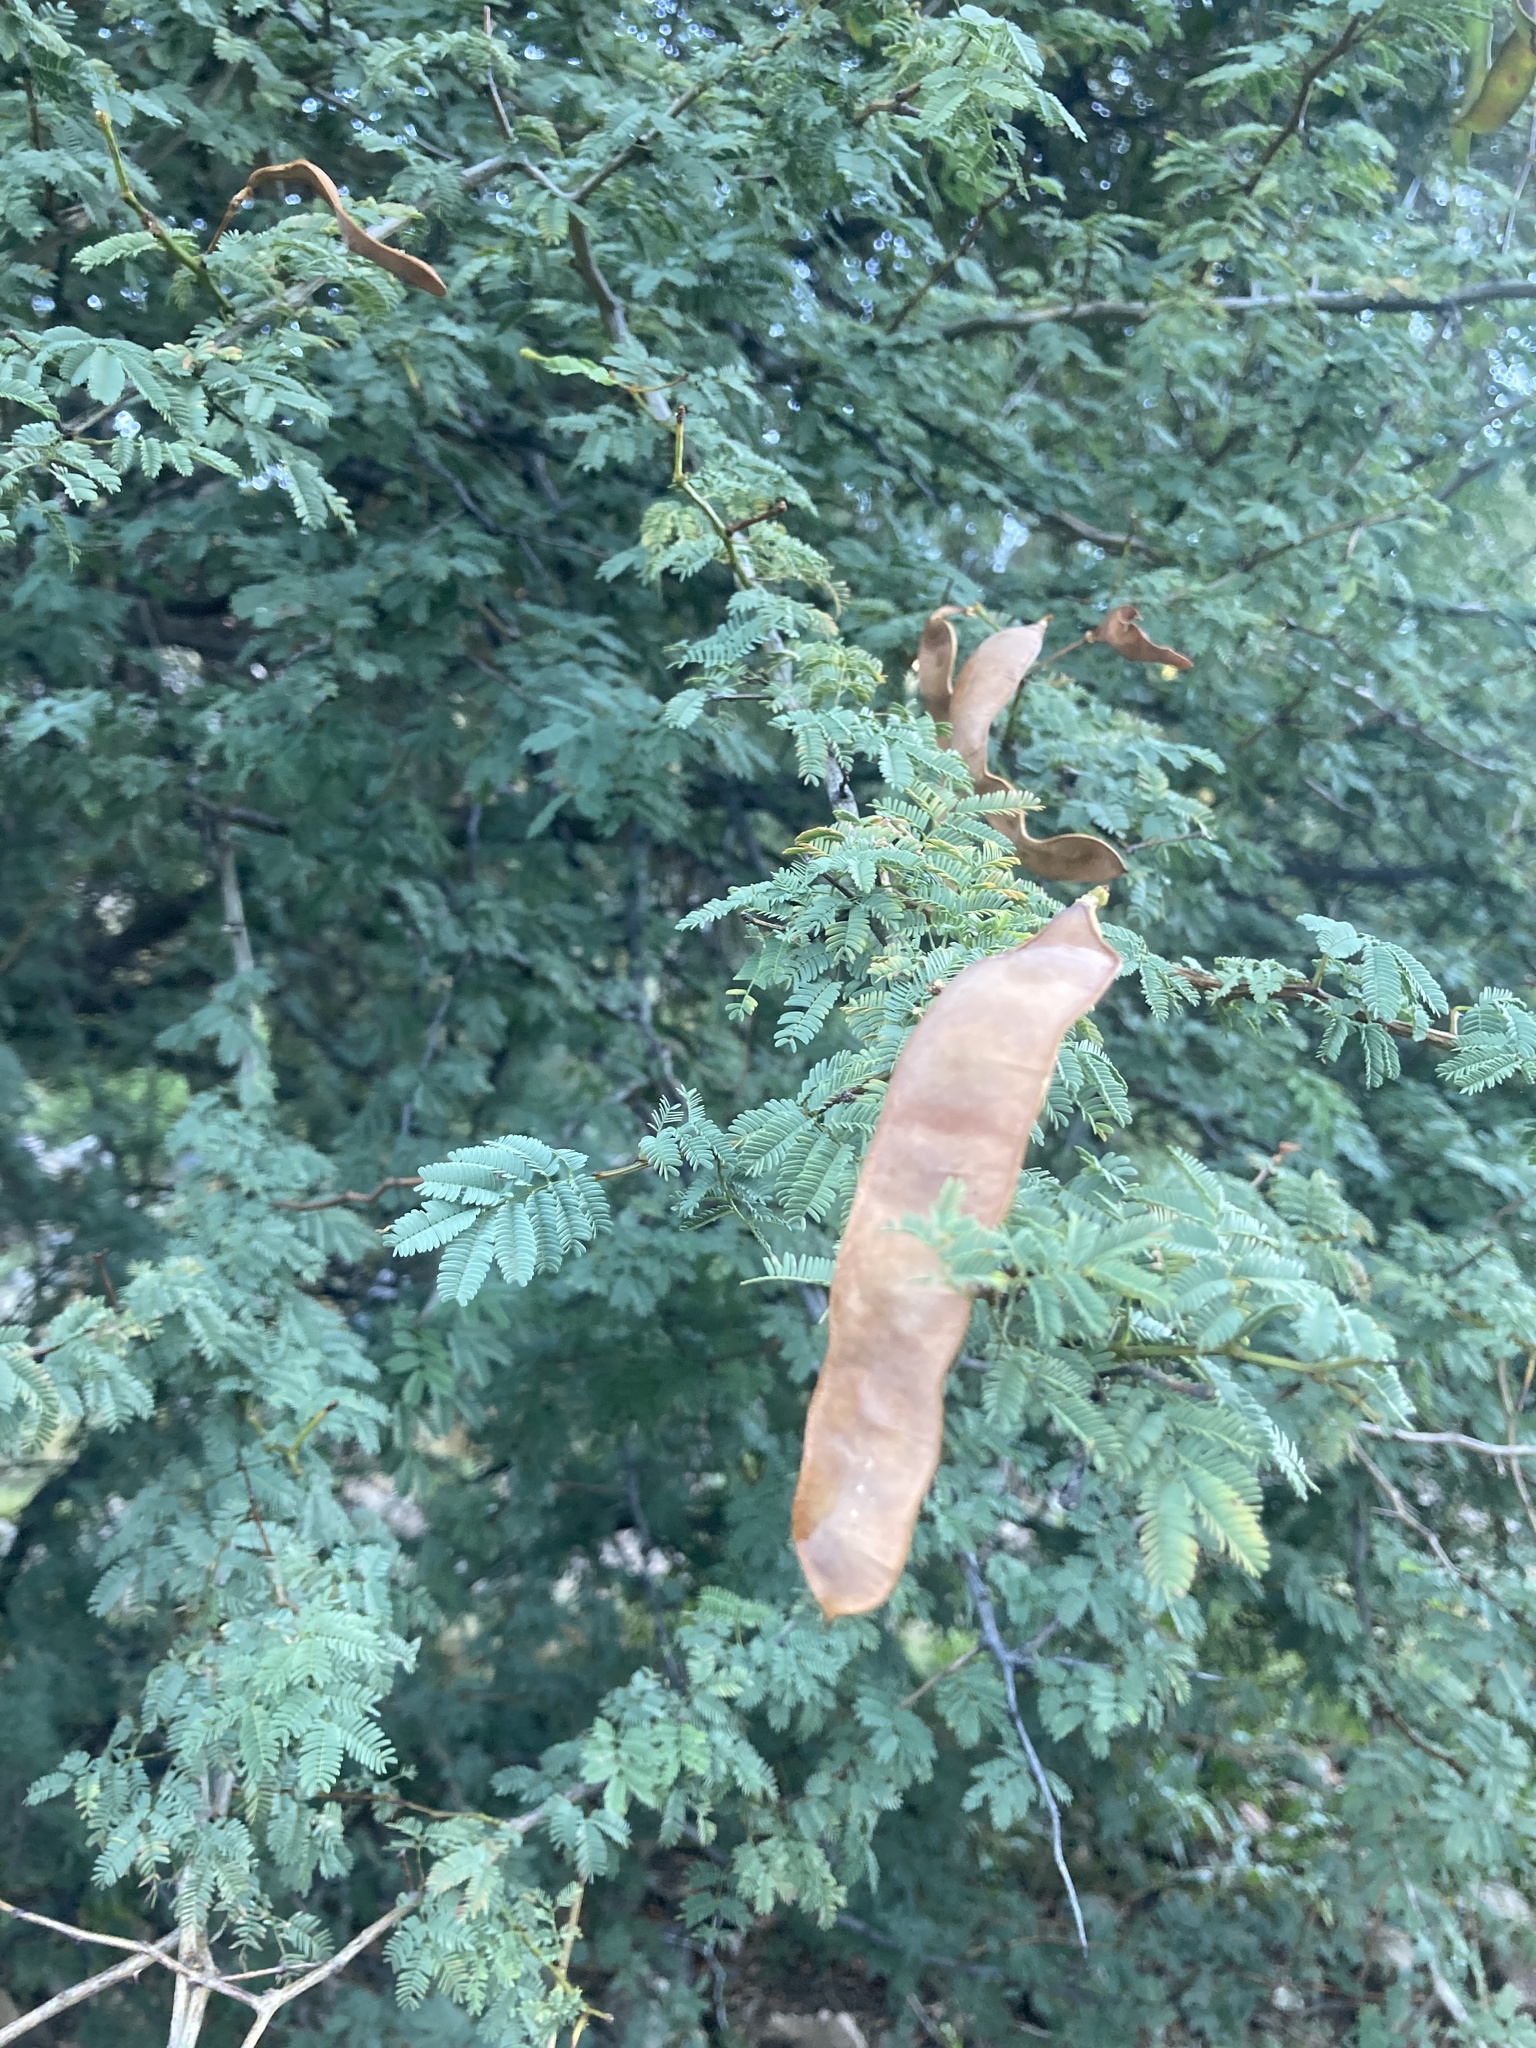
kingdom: Plantae
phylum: Tracheophyta
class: Magnoliopsida
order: Fabales
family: Fabaceae
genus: Senegalia
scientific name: Senegalia gilliesii
